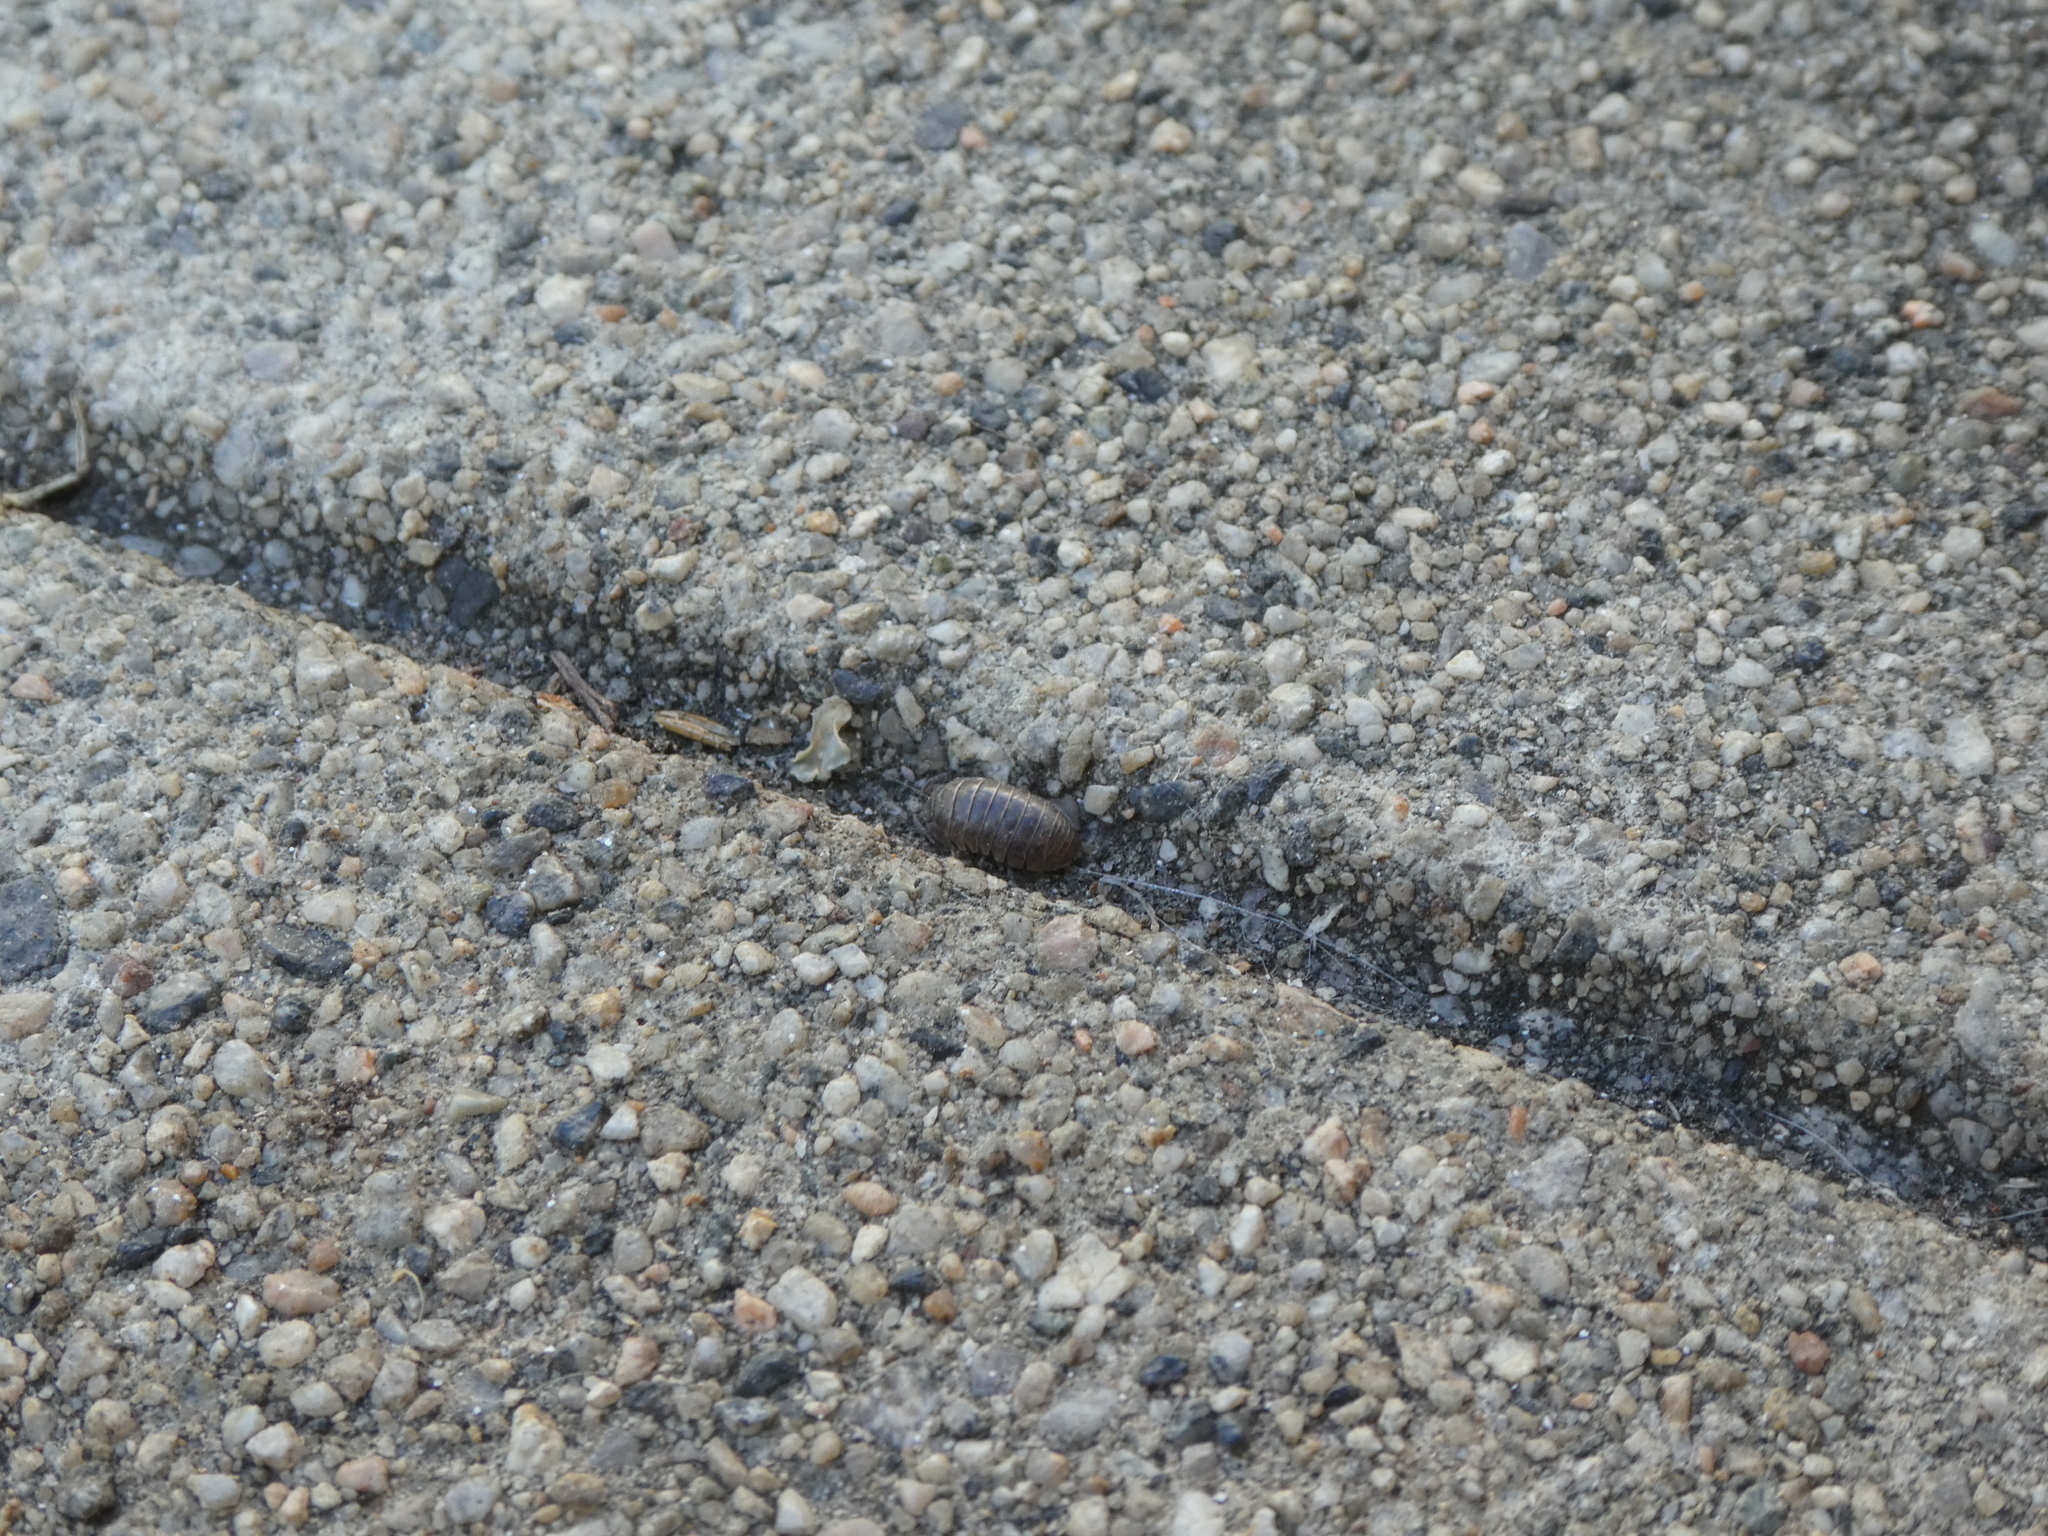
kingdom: Animalia
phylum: Arthropoda
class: Malacostraca
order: Isopoda
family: Armadillidiidae
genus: Armadillidium
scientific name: Armadillidium vulgare
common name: Common pill woodlouse
